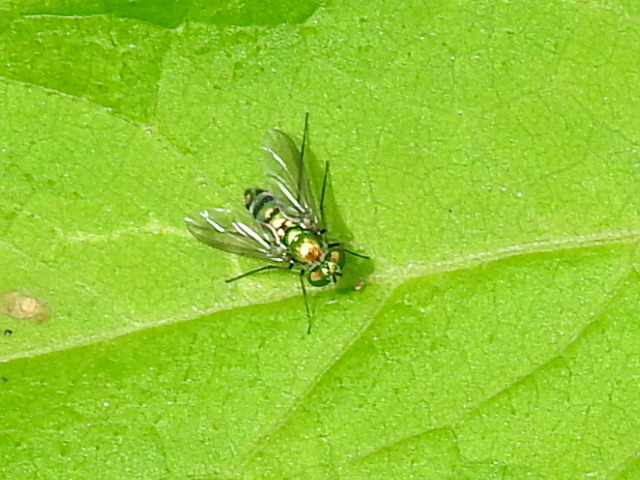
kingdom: Animalia
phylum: Arthropoda
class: Insecta
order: Diptera
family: Dolichopodidae
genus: Condylostylus
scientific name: Condylostylus longicornis
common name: Long-legged fly
